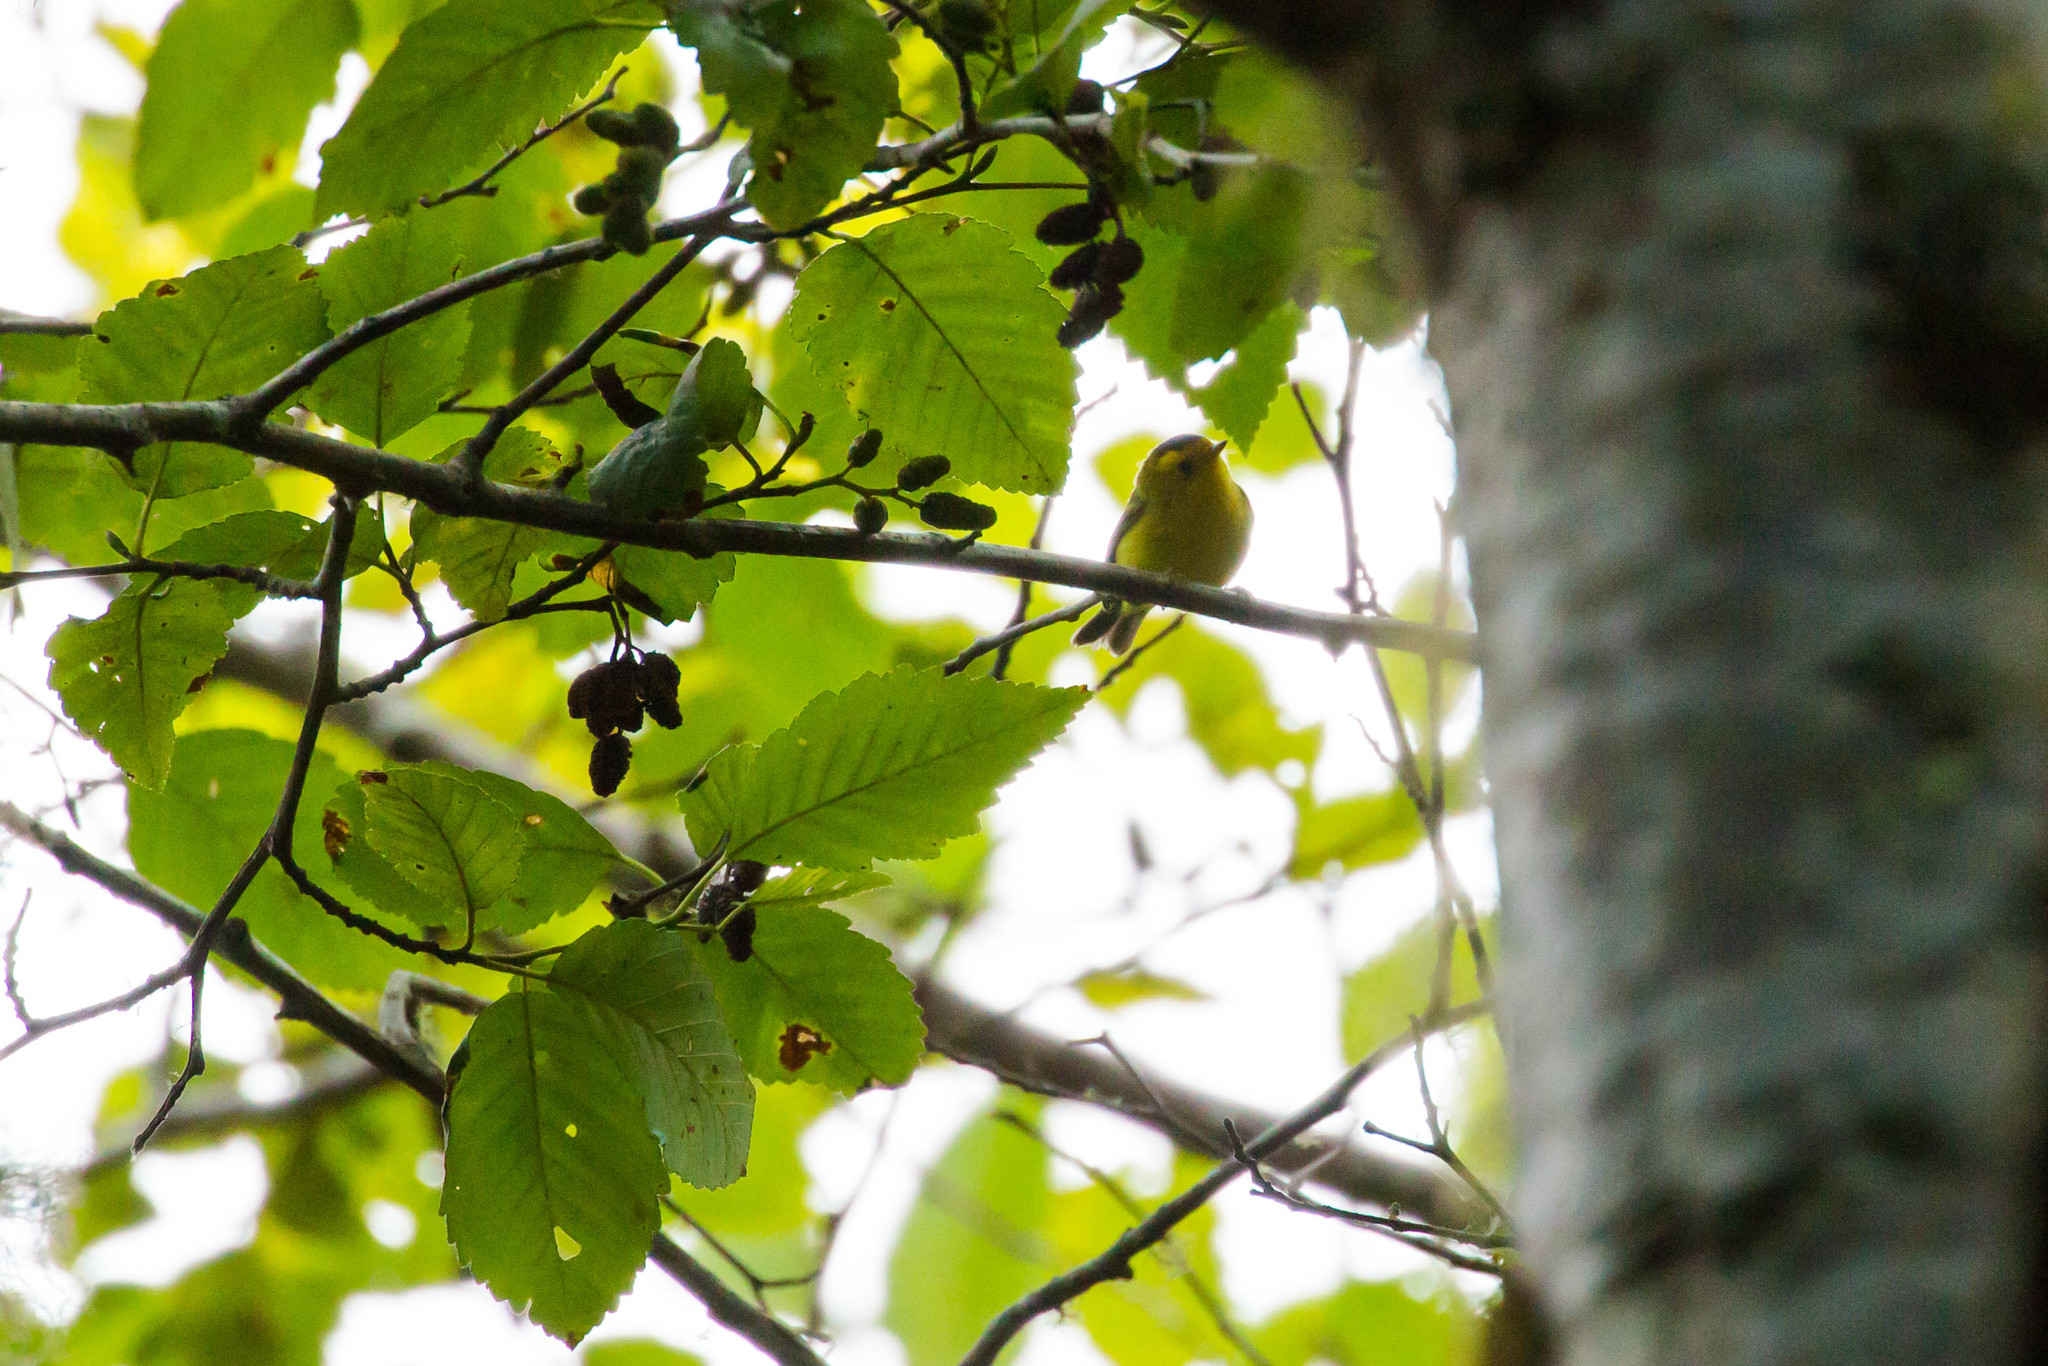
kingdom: Animalia
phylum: Chordata
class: Aves
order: Passeriformes
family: Parulidae
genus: Cardellina
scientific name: Cardellina pusilla
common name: Wilson's warbler
